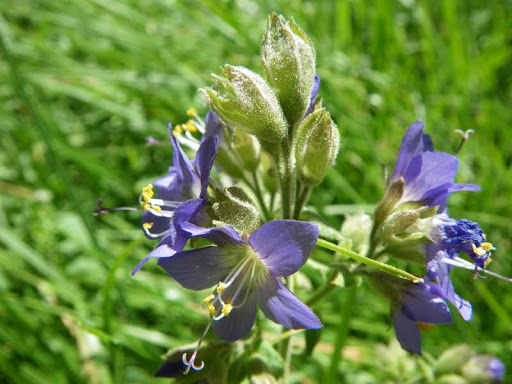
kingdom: Plantae
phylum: Tracheophyta
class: Magnoliopsida
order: Ericales
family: Polemoniaceae
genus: Polemonium
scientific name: Polemonium occidentale
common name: Western jacob's-ladder
